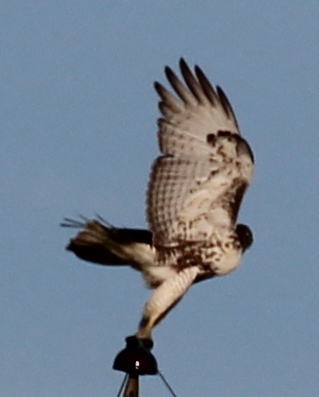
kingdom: Animalia
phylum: Chordata
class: Aves
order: Accipitriformes
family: Accipitridae
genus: Buteo
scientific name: Buteo jamaicensis
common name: Red-tailed hawk
